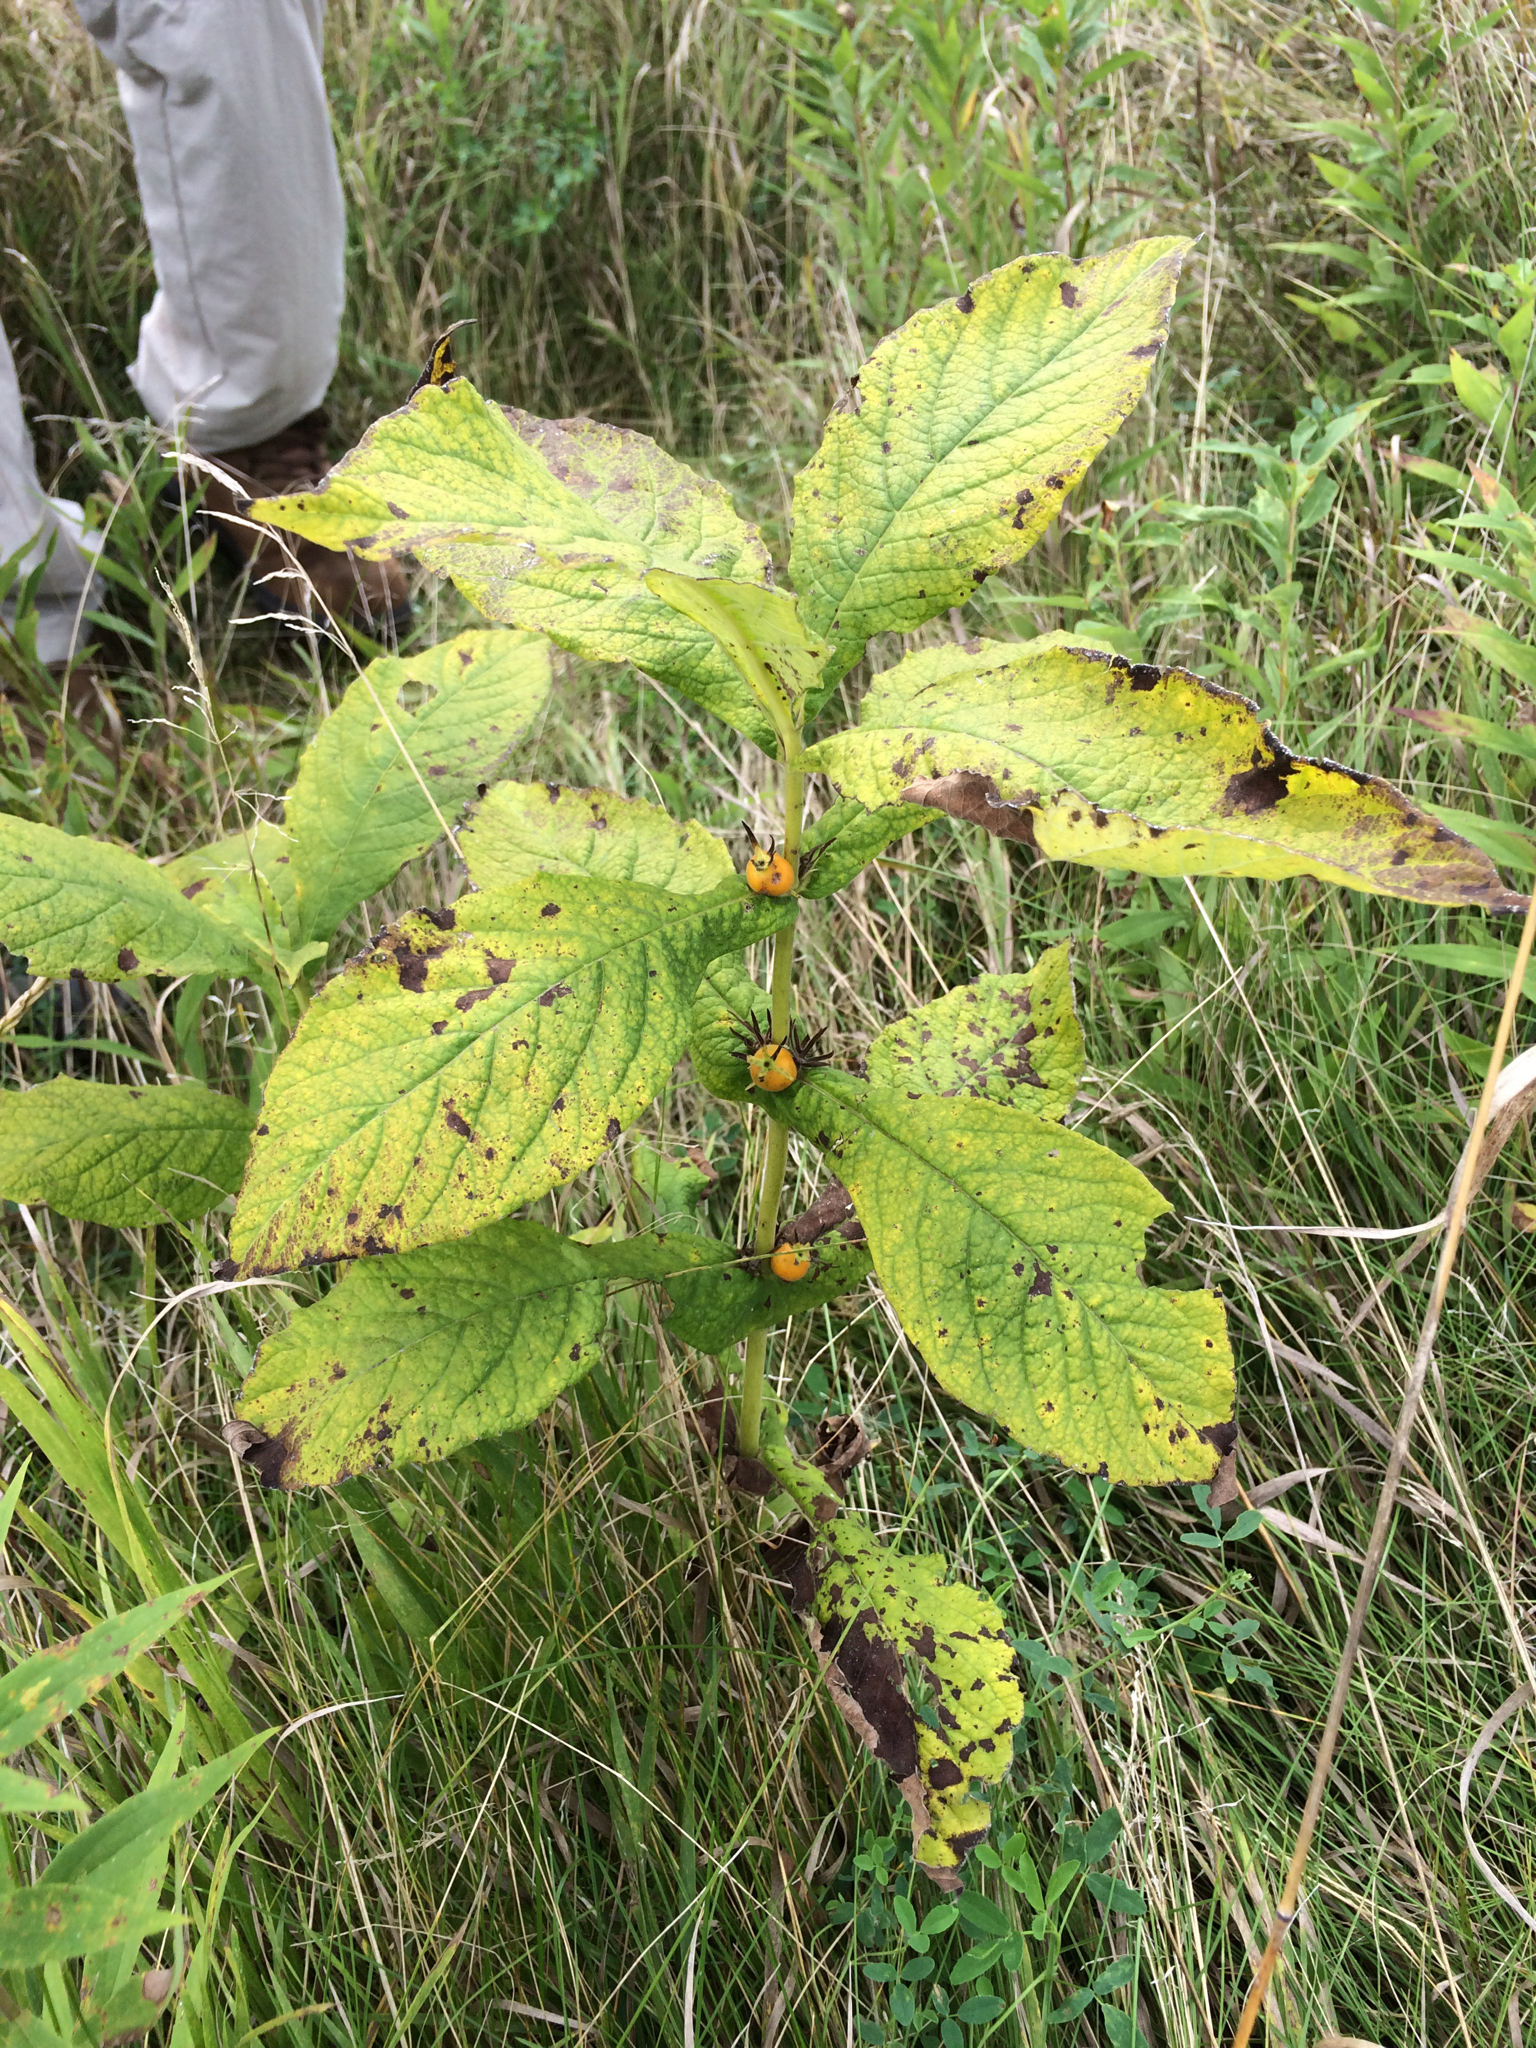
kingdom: Plantae
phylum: Tracheophyta
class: Magnoliopsida
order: Dipsacales
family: Caprifoliaceae
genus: Triosteum
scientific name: Triosteum perfoliatum
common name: Common horse-gentian
